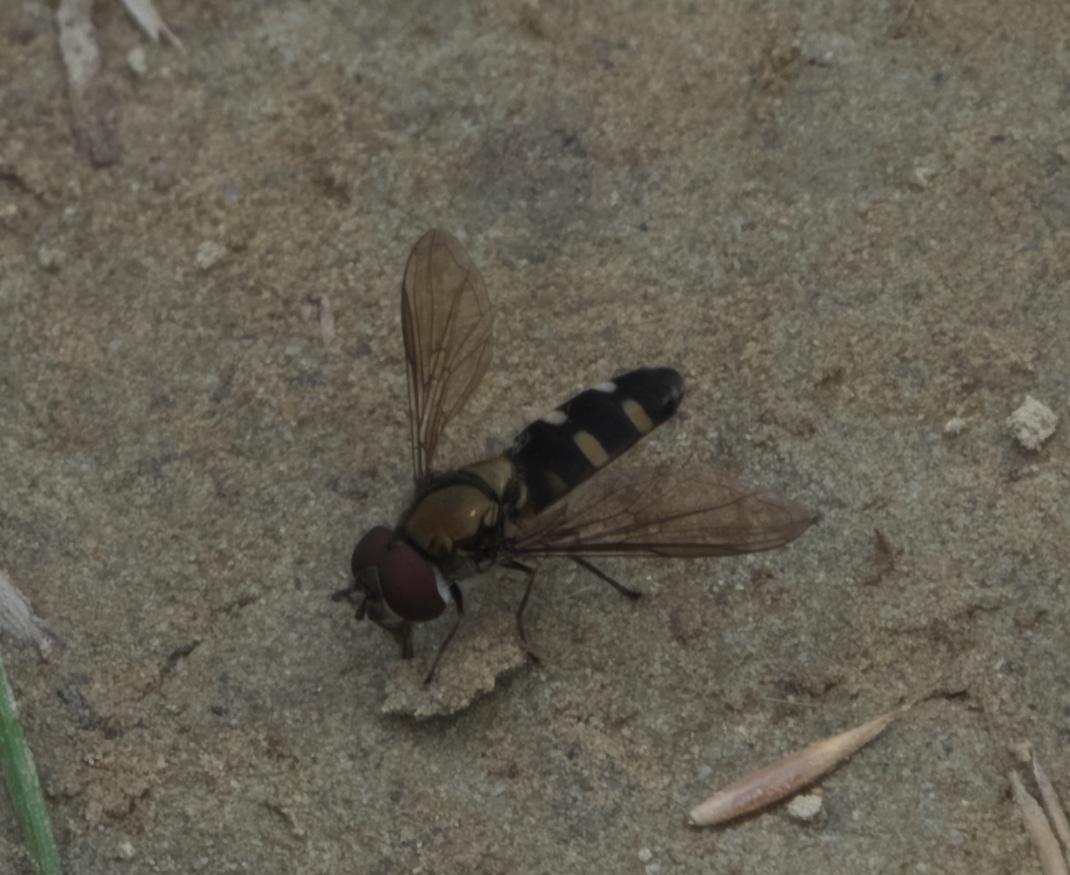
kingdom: Animalia
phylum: Arthropoda
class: Insecta
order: Diptera
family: Syrphidae
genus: Melangyna
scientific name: Melangyna novaezelandiae
